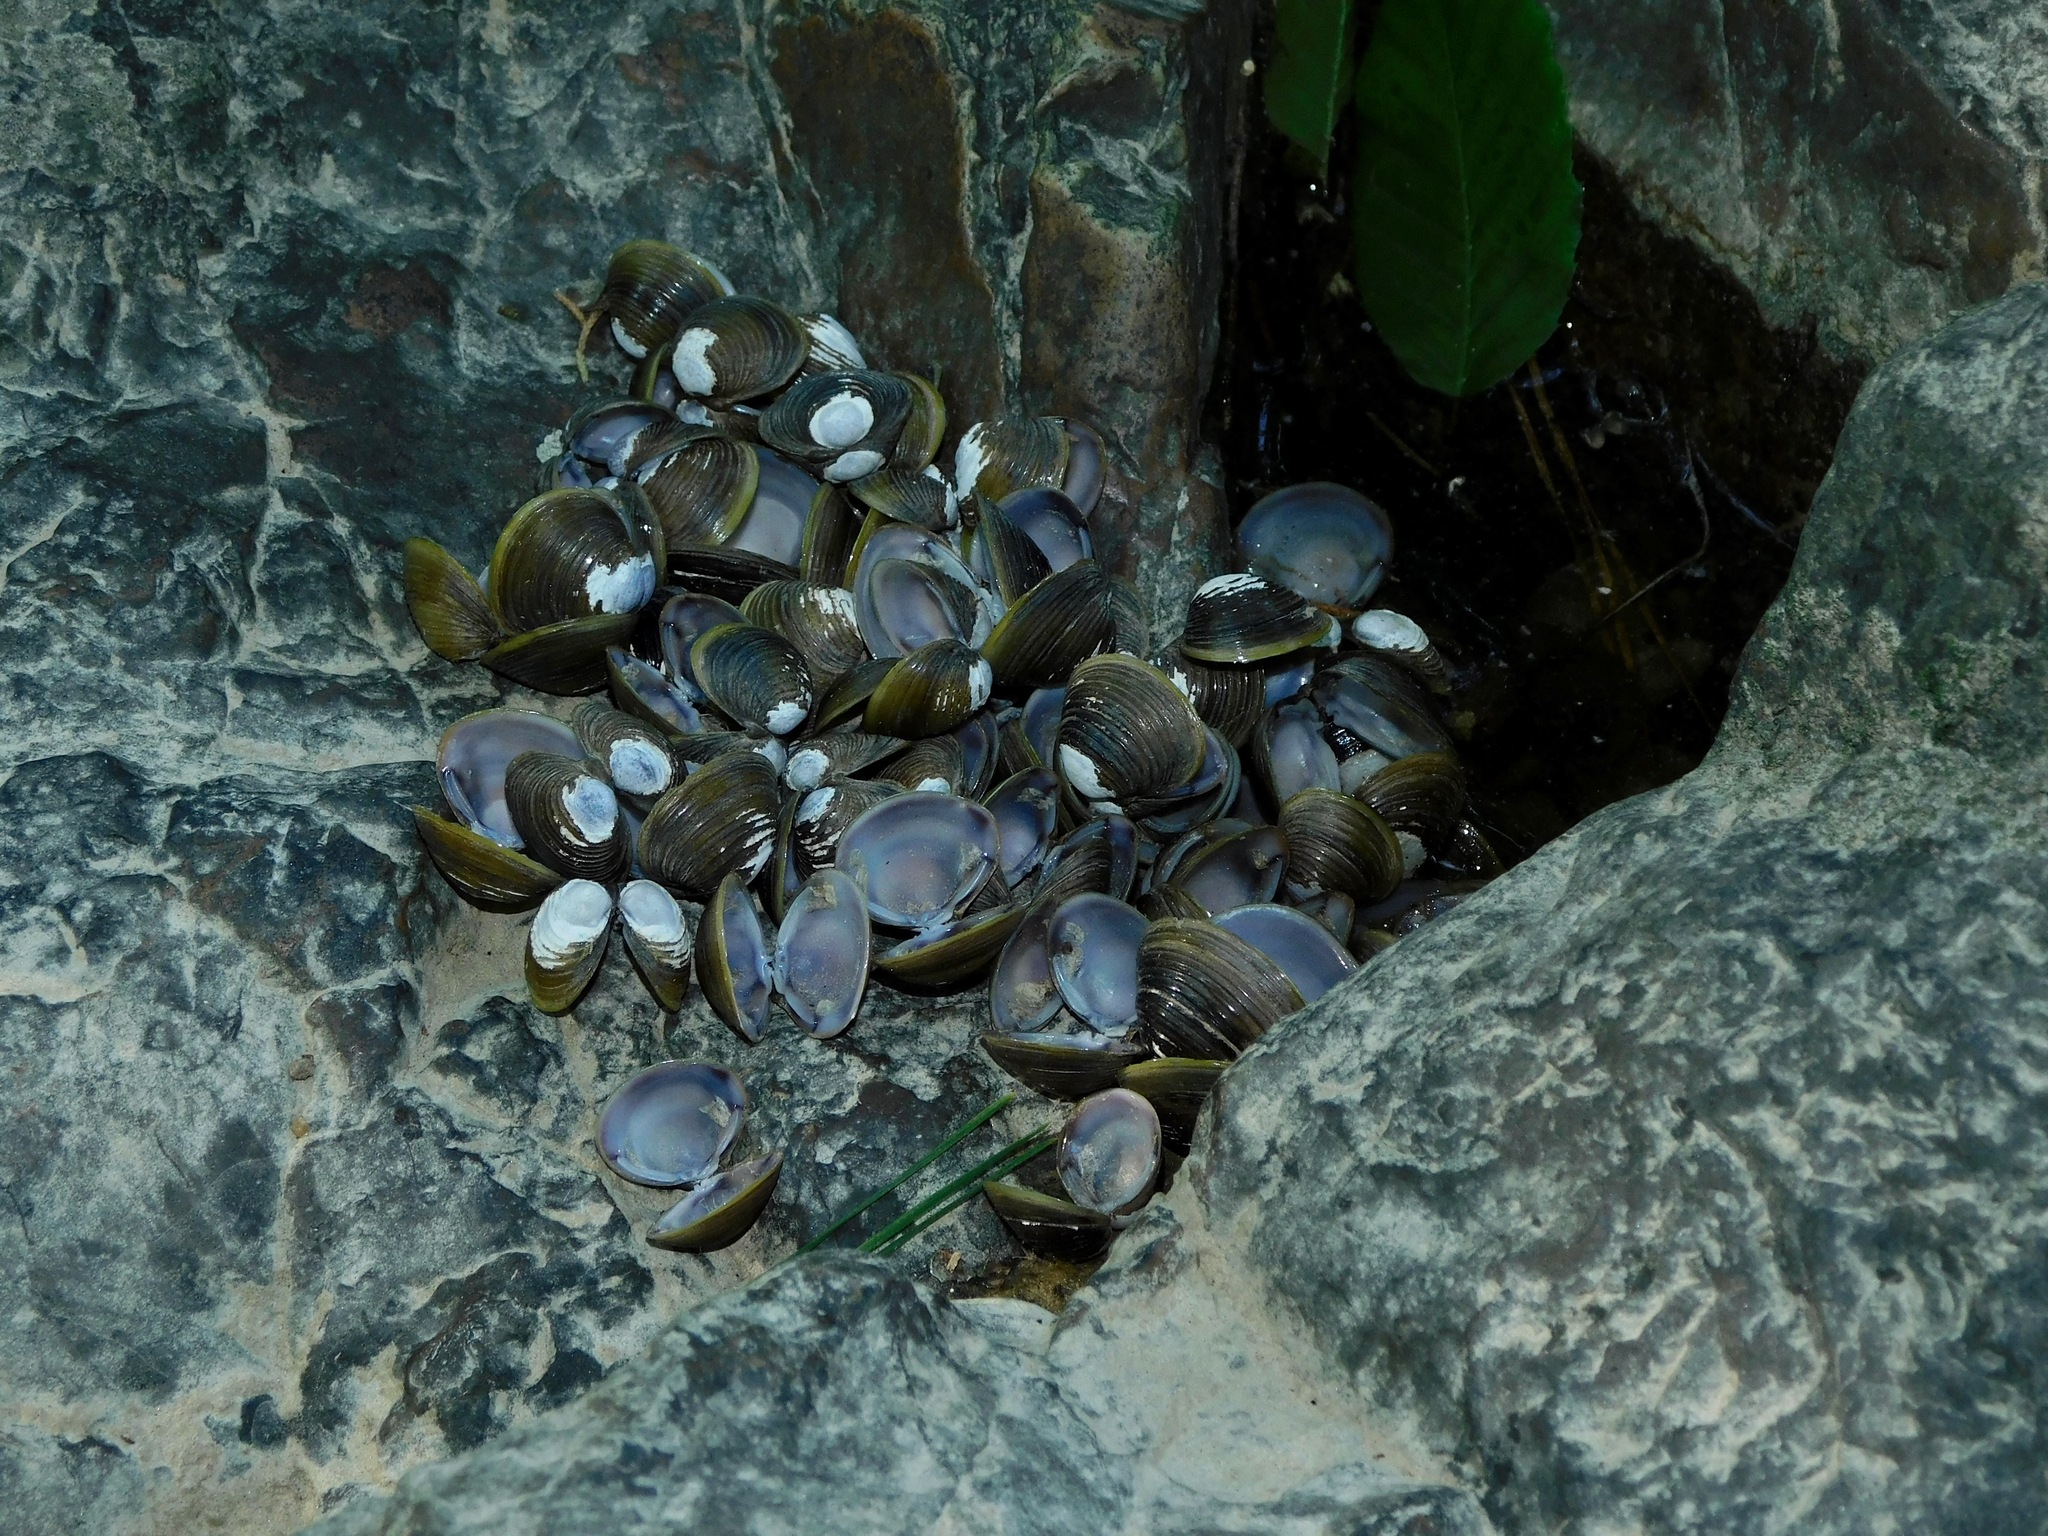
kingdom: Animalia
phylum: Mollusca
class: Bivalvia
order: Venerida
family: Cyrenidae
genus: Corbicula
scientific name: Corbicula fluminea
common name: Asian clam
